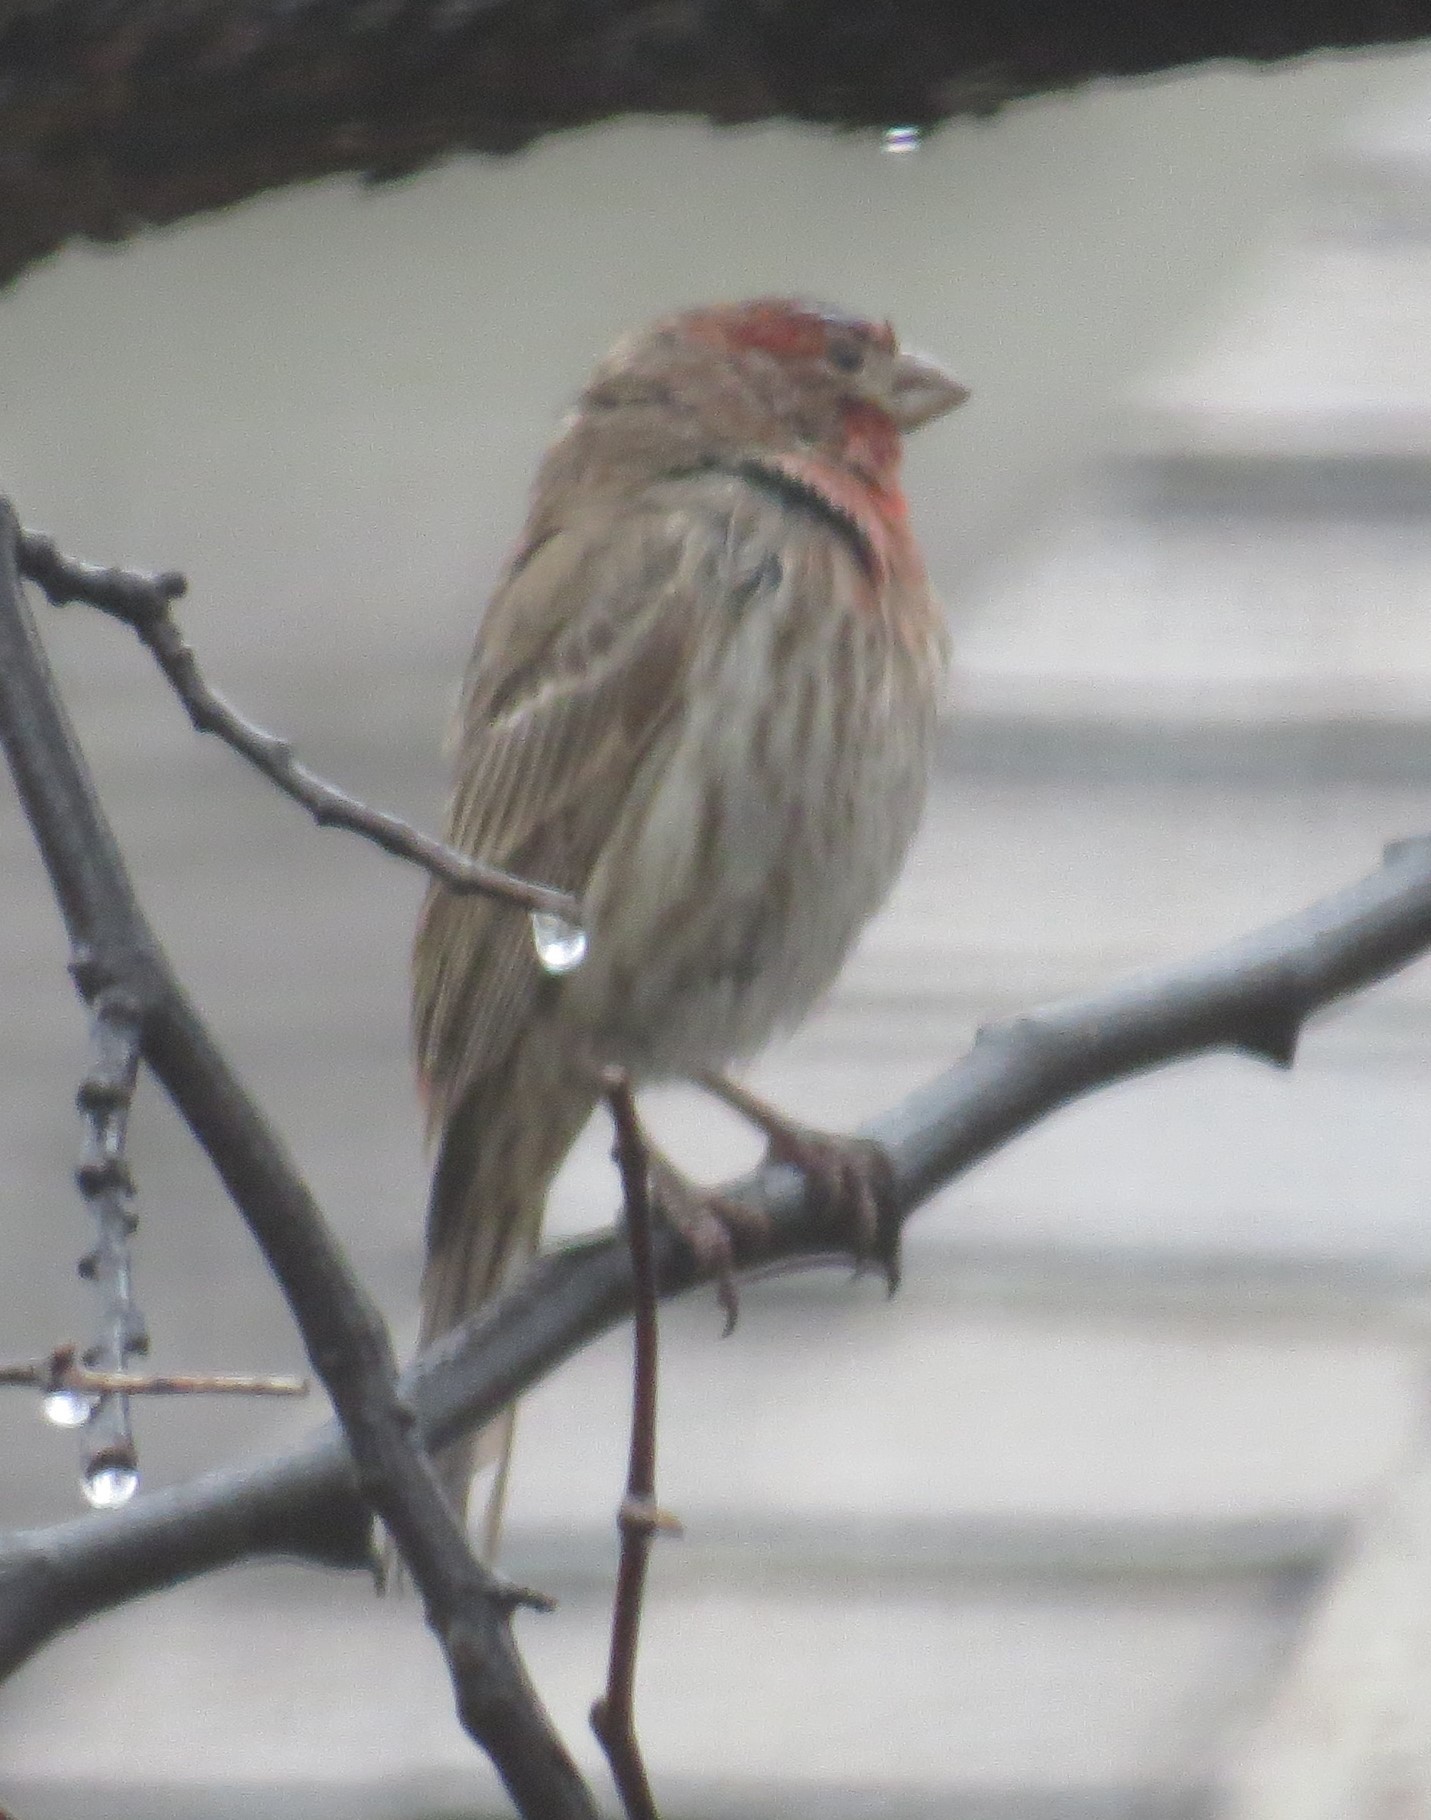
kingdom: Animalia
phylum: Chordata
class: Aves
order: Passeriformes
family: Fringillidae
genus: Haemorhous
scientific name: Haemorhous mexicanus
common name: House finch
